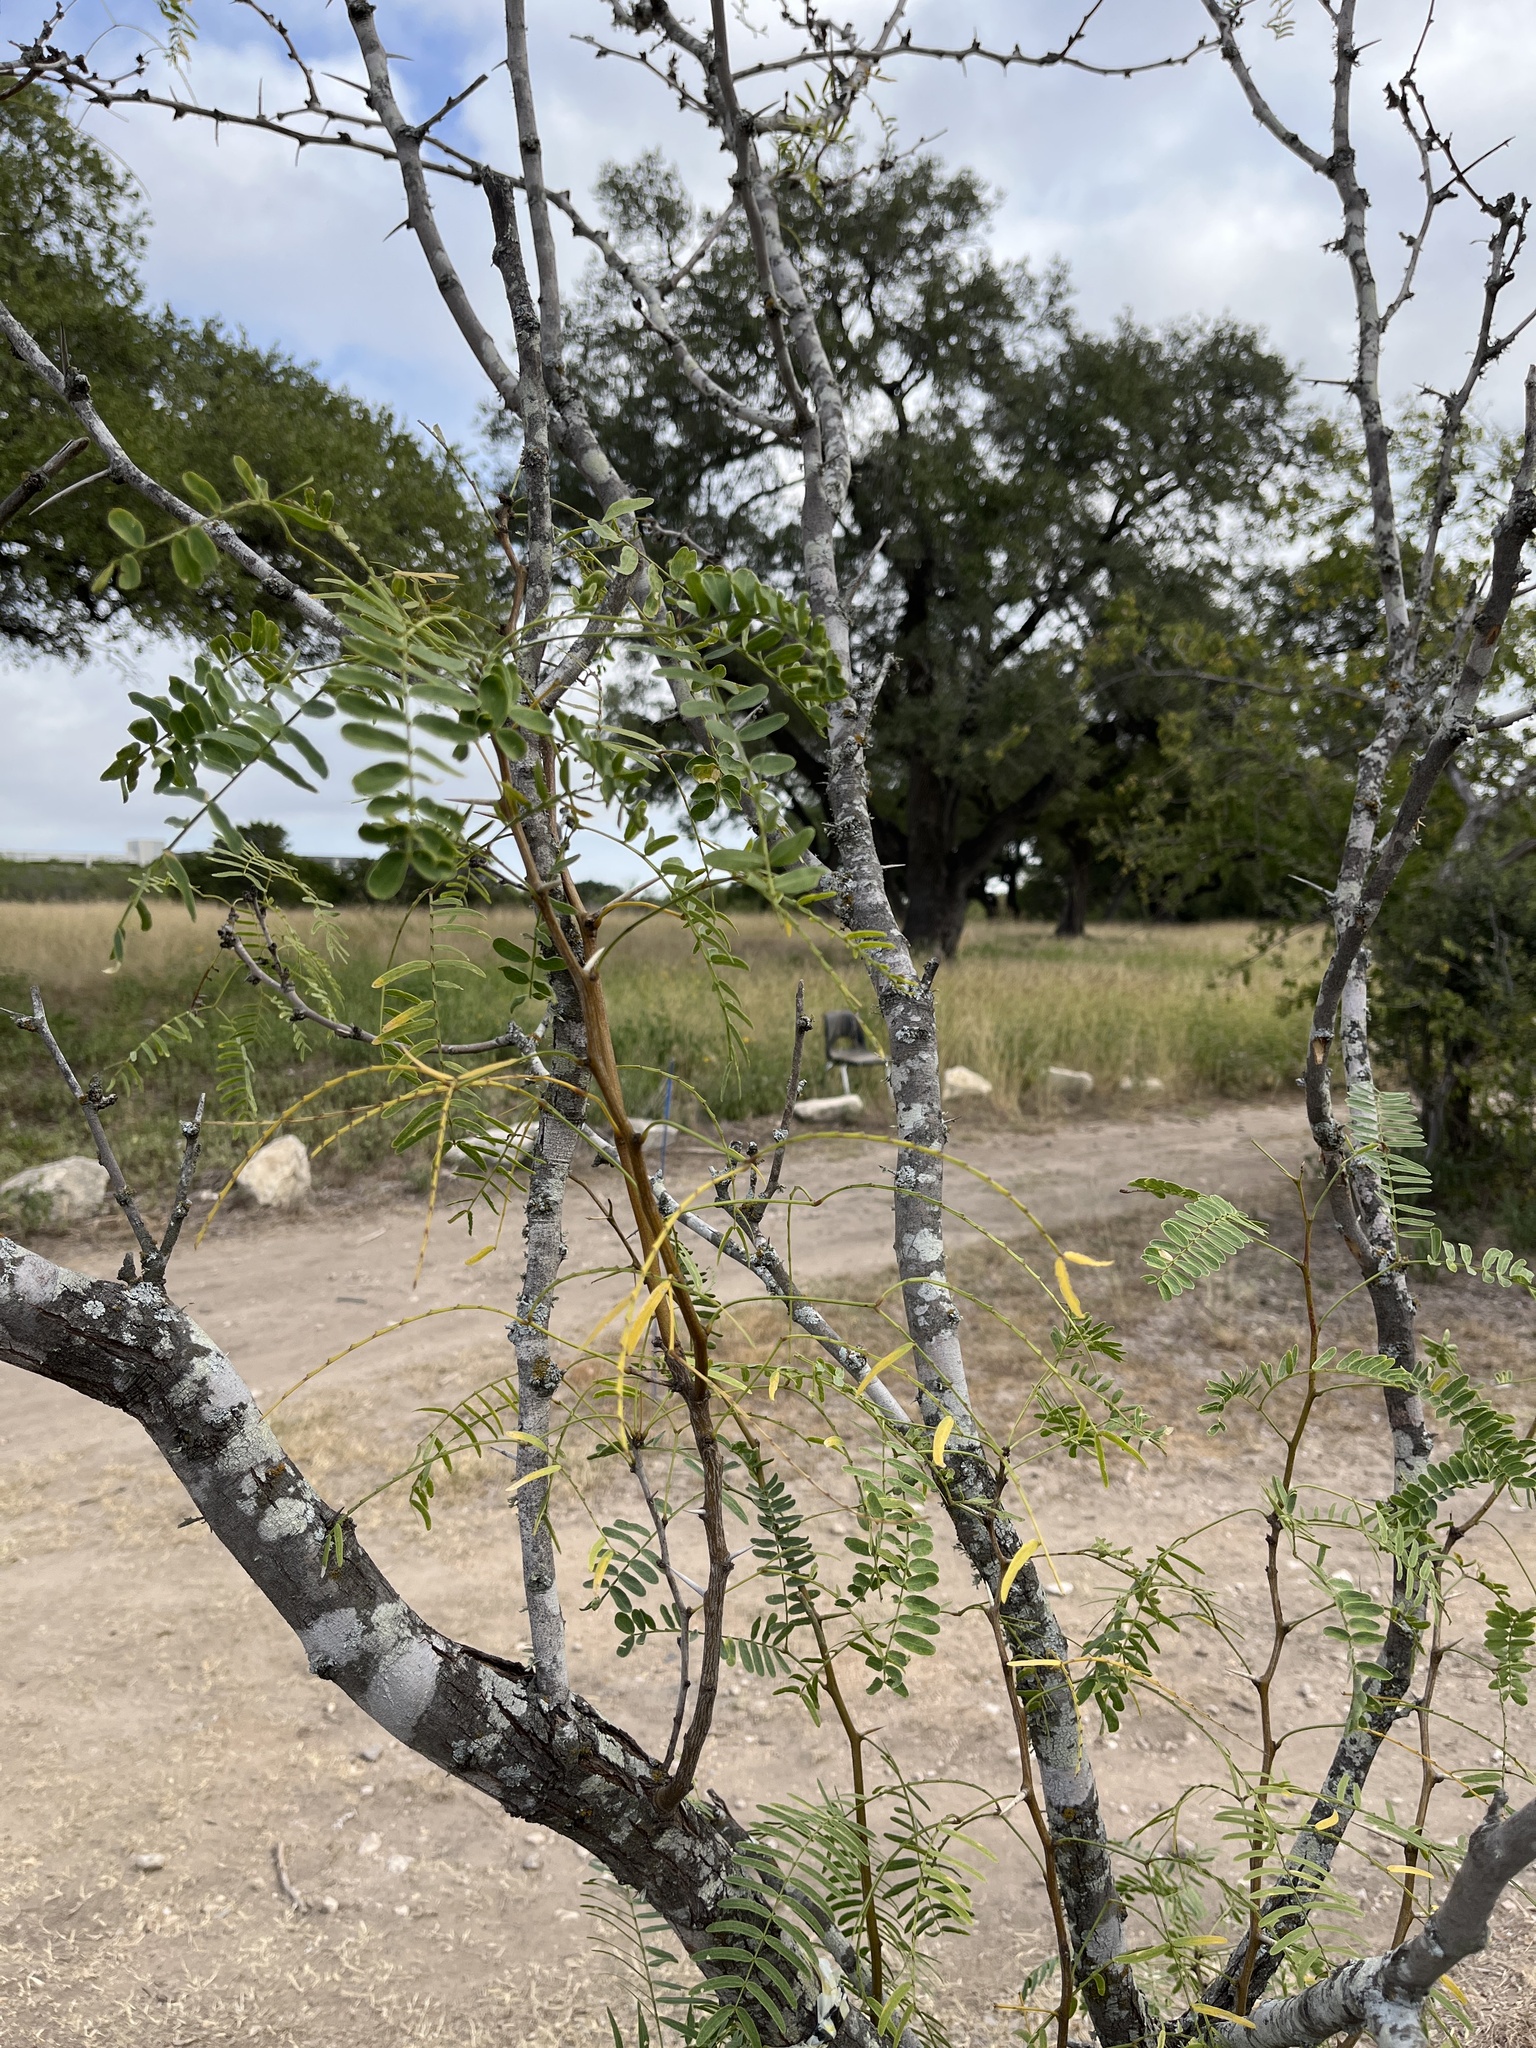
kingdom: Plantae
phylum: Tracheophyta
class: Magnoliopsida
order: Fabales
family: Fabaceae
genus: Prosopis
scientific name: Prosopis glandulosa
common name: Honey mesquite
